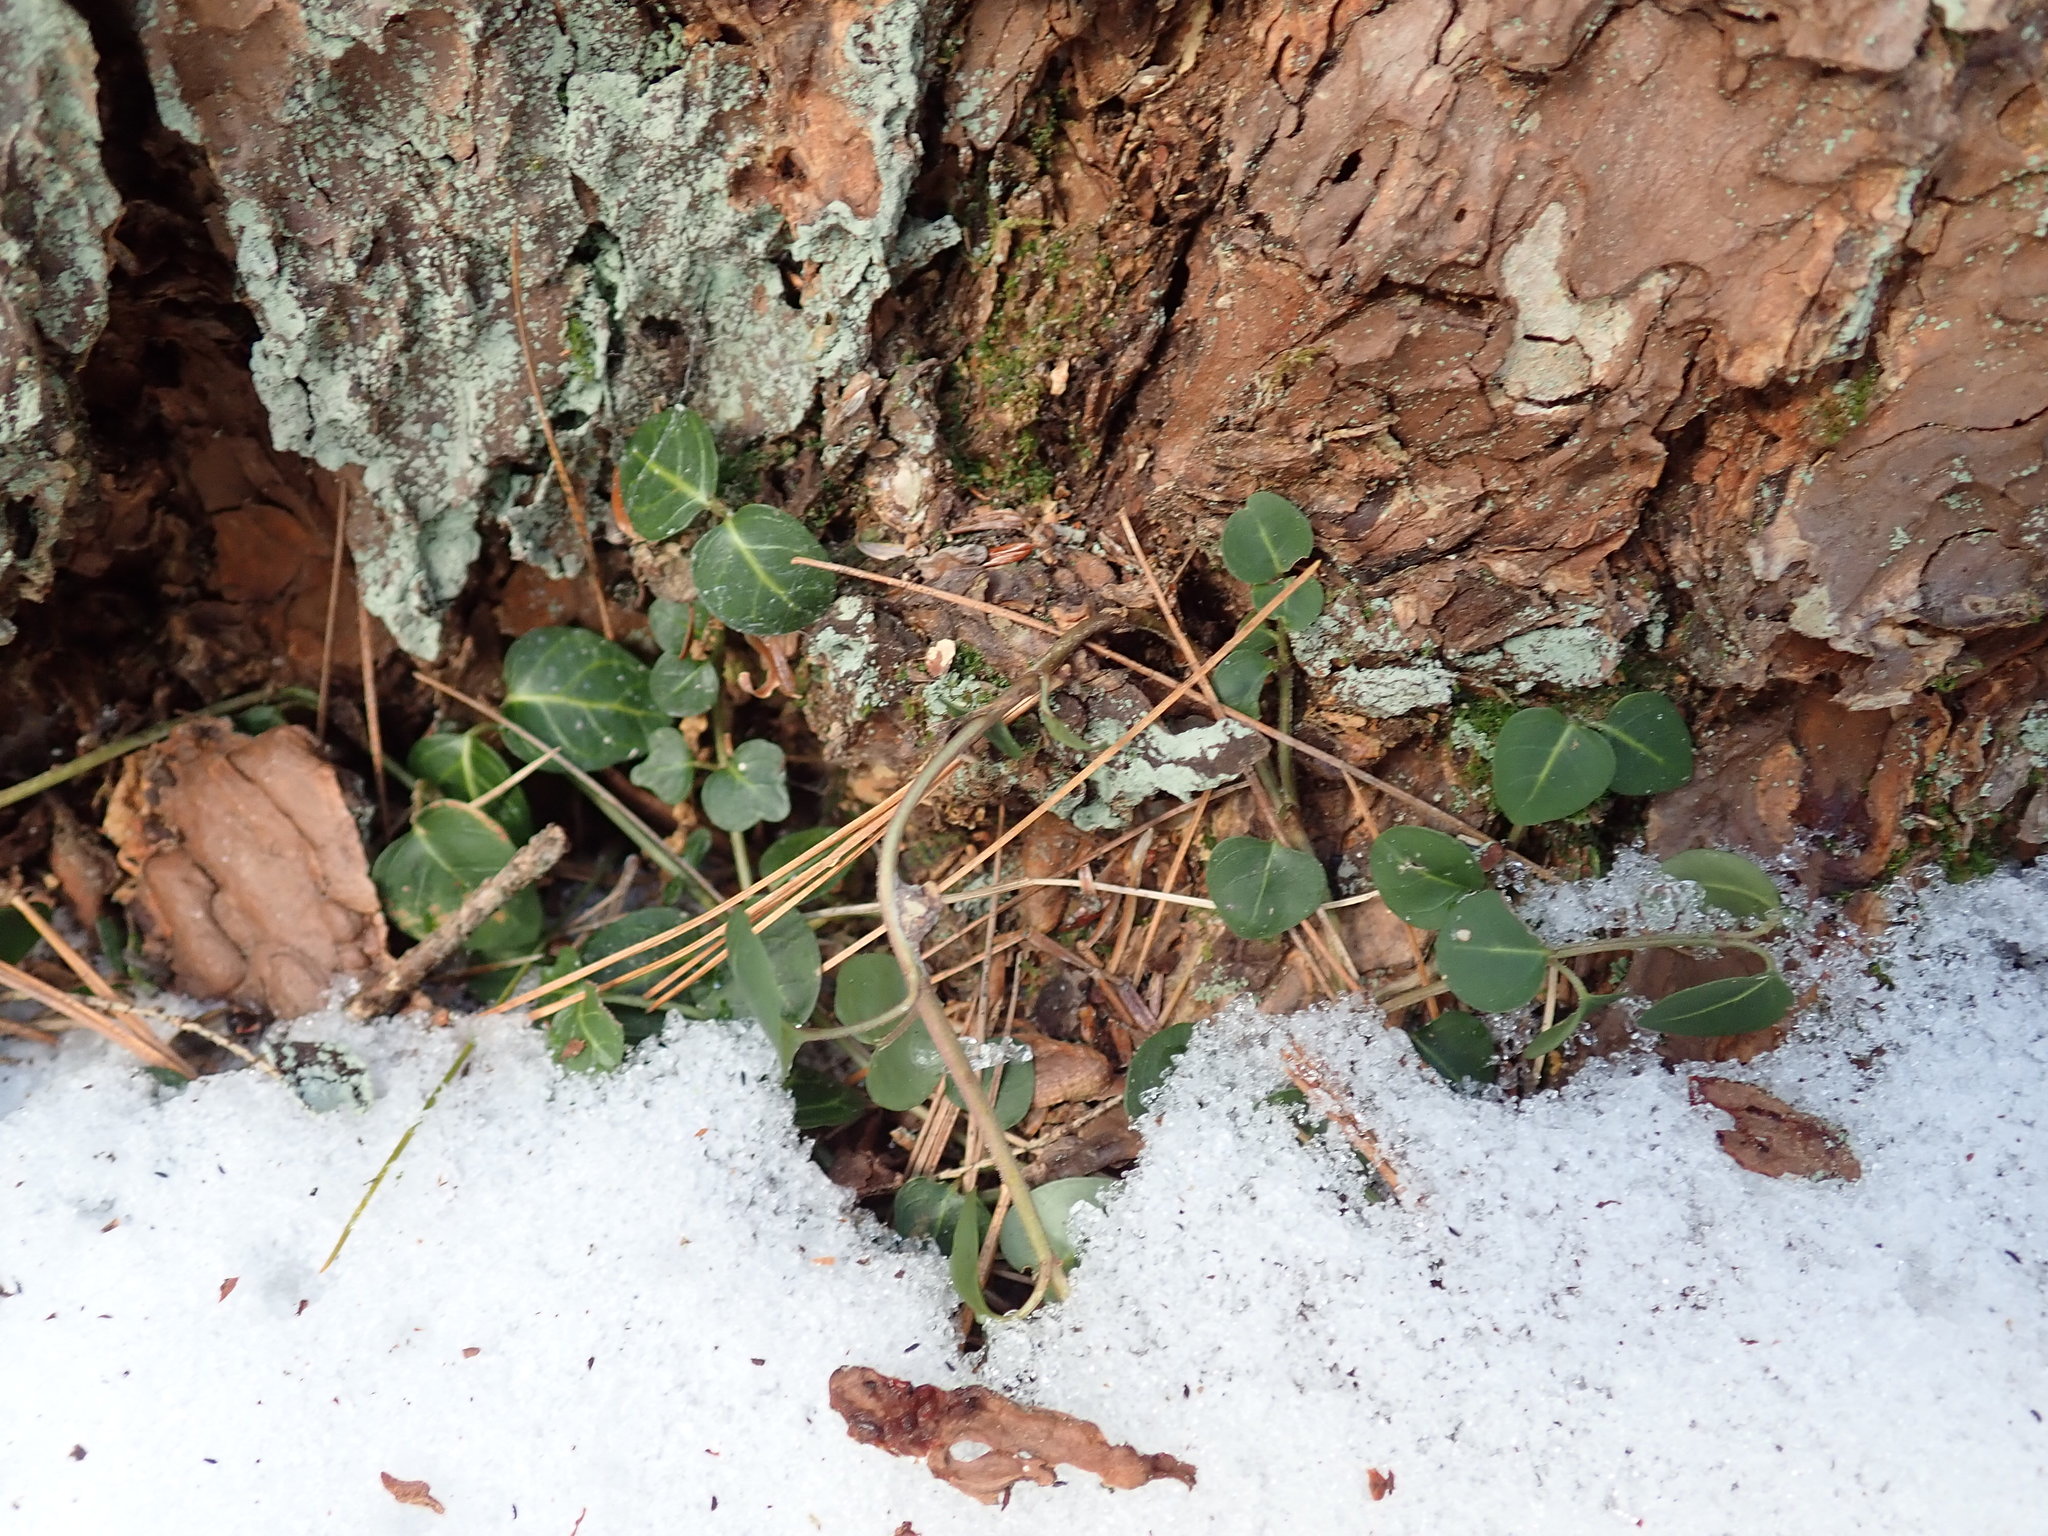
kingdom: Plantae
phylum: Tracheophyta
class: Magnoliopsida
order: Gentianales
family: Rubiaceae
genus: Mitchella
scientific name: Mitchella repens
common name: Partridge-berry
